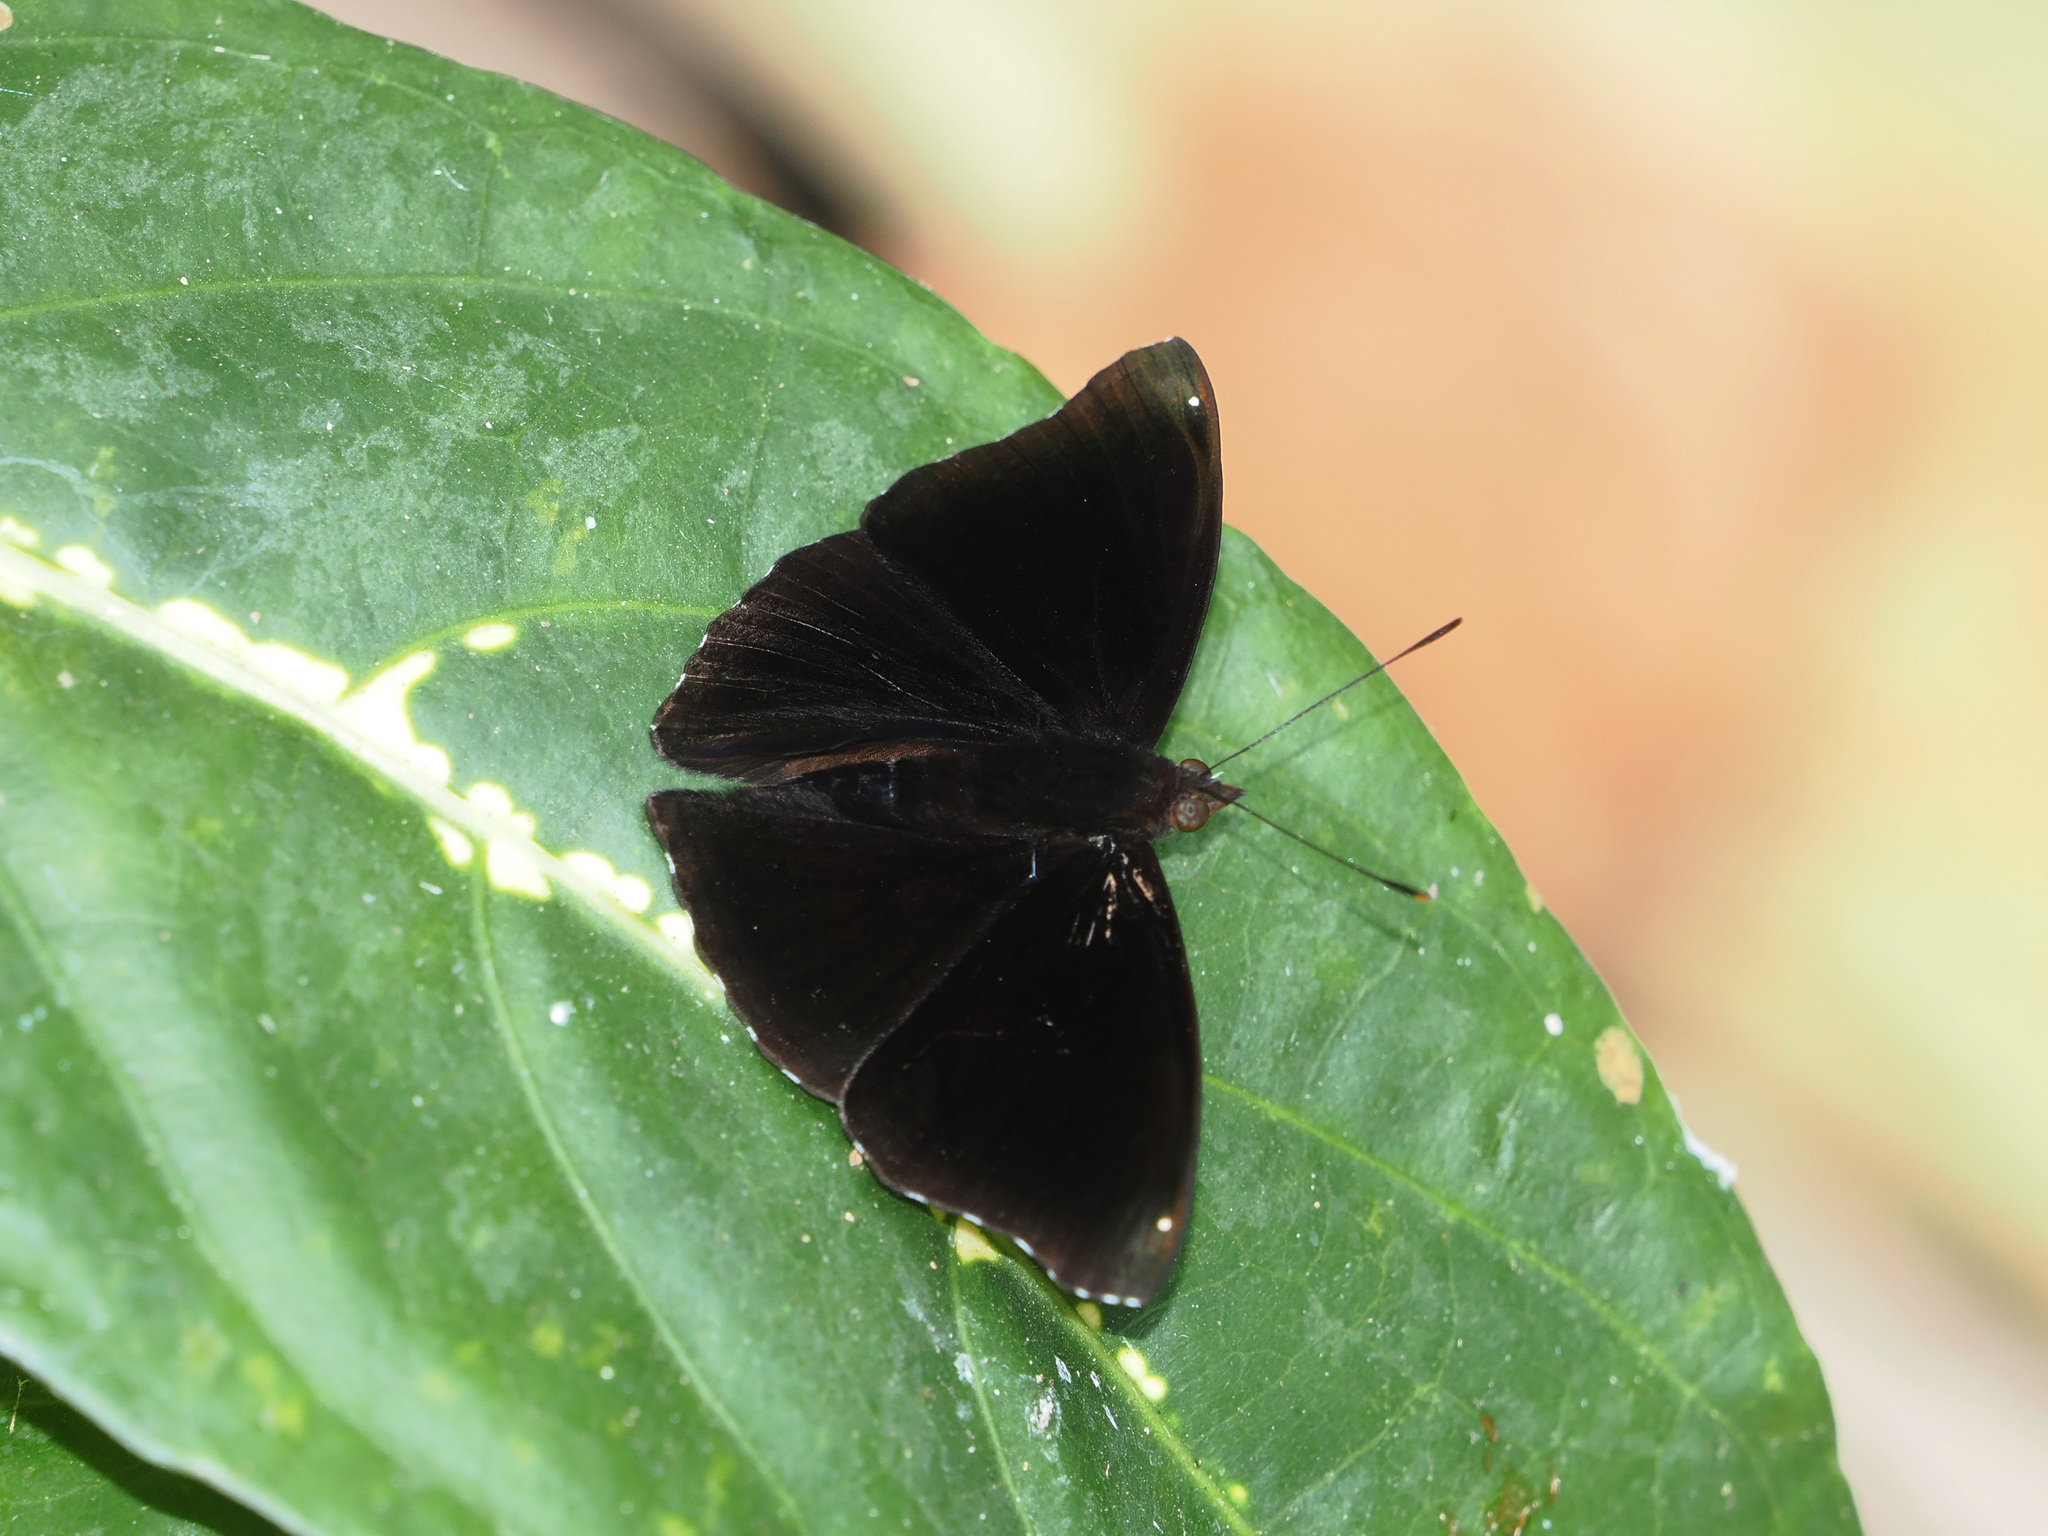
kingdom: Animalia
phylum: Arthropoda
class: Insecta
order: Lepidoptera
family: Nymphalidae
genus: Apatura
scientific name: Apatura Rohana spec
